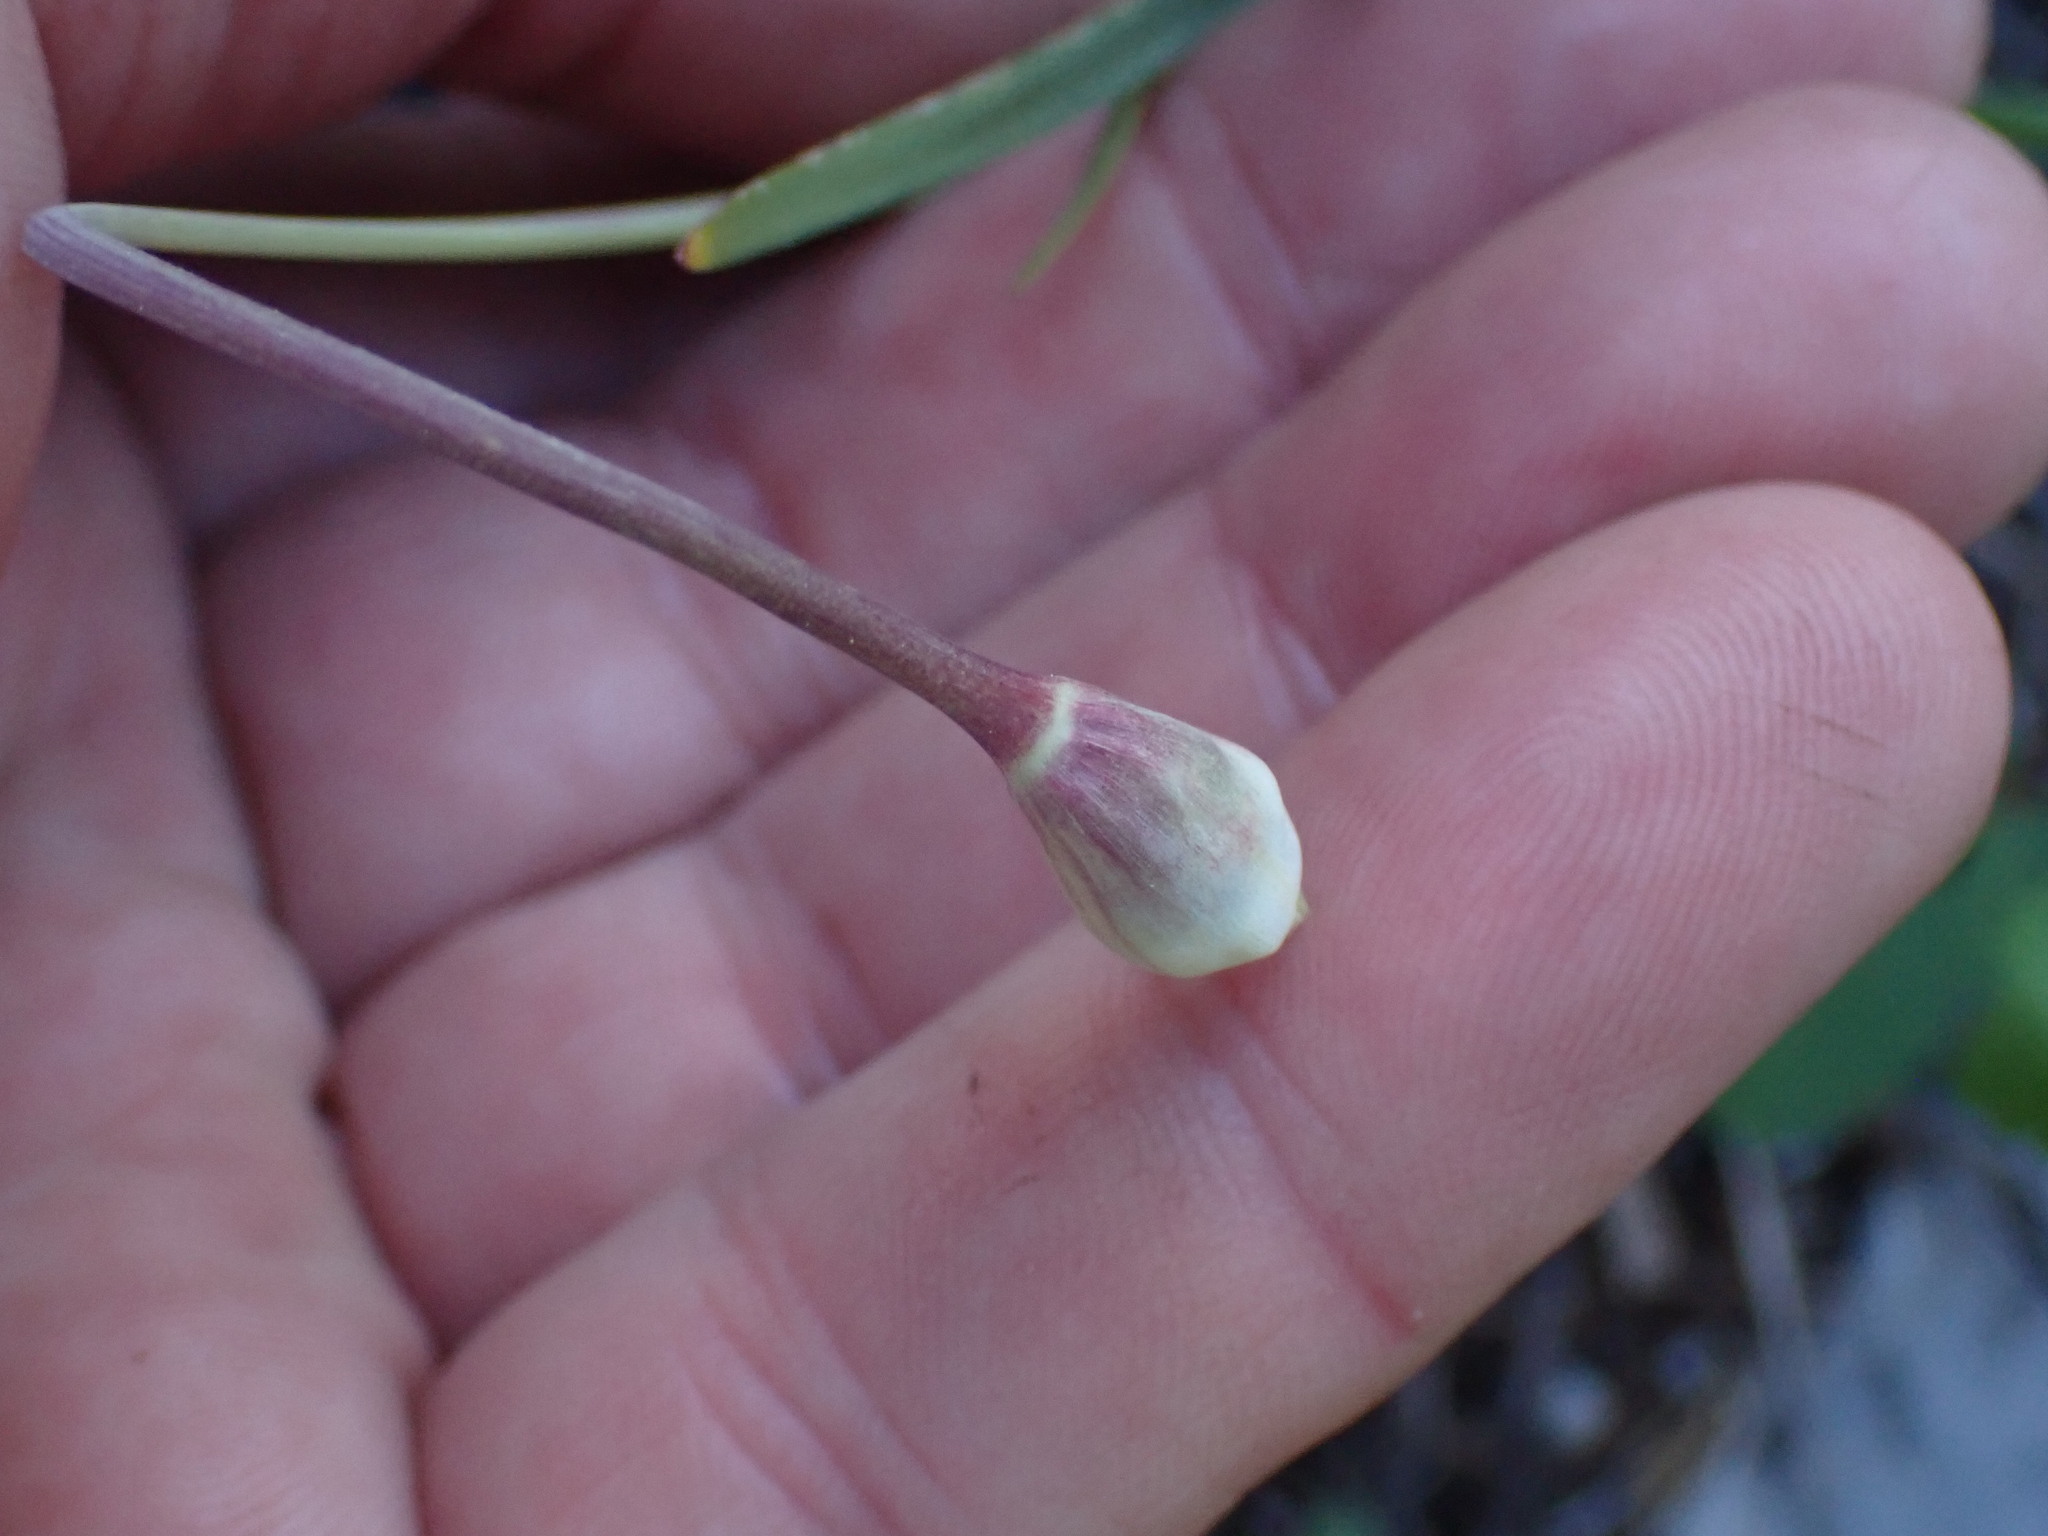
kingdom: Plantae
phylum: Tracheophyta
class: Liliopsida
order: Asparagales
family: Amaryllidaceae
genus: Allium
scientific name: Allium cernuum
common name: Nodding onion
